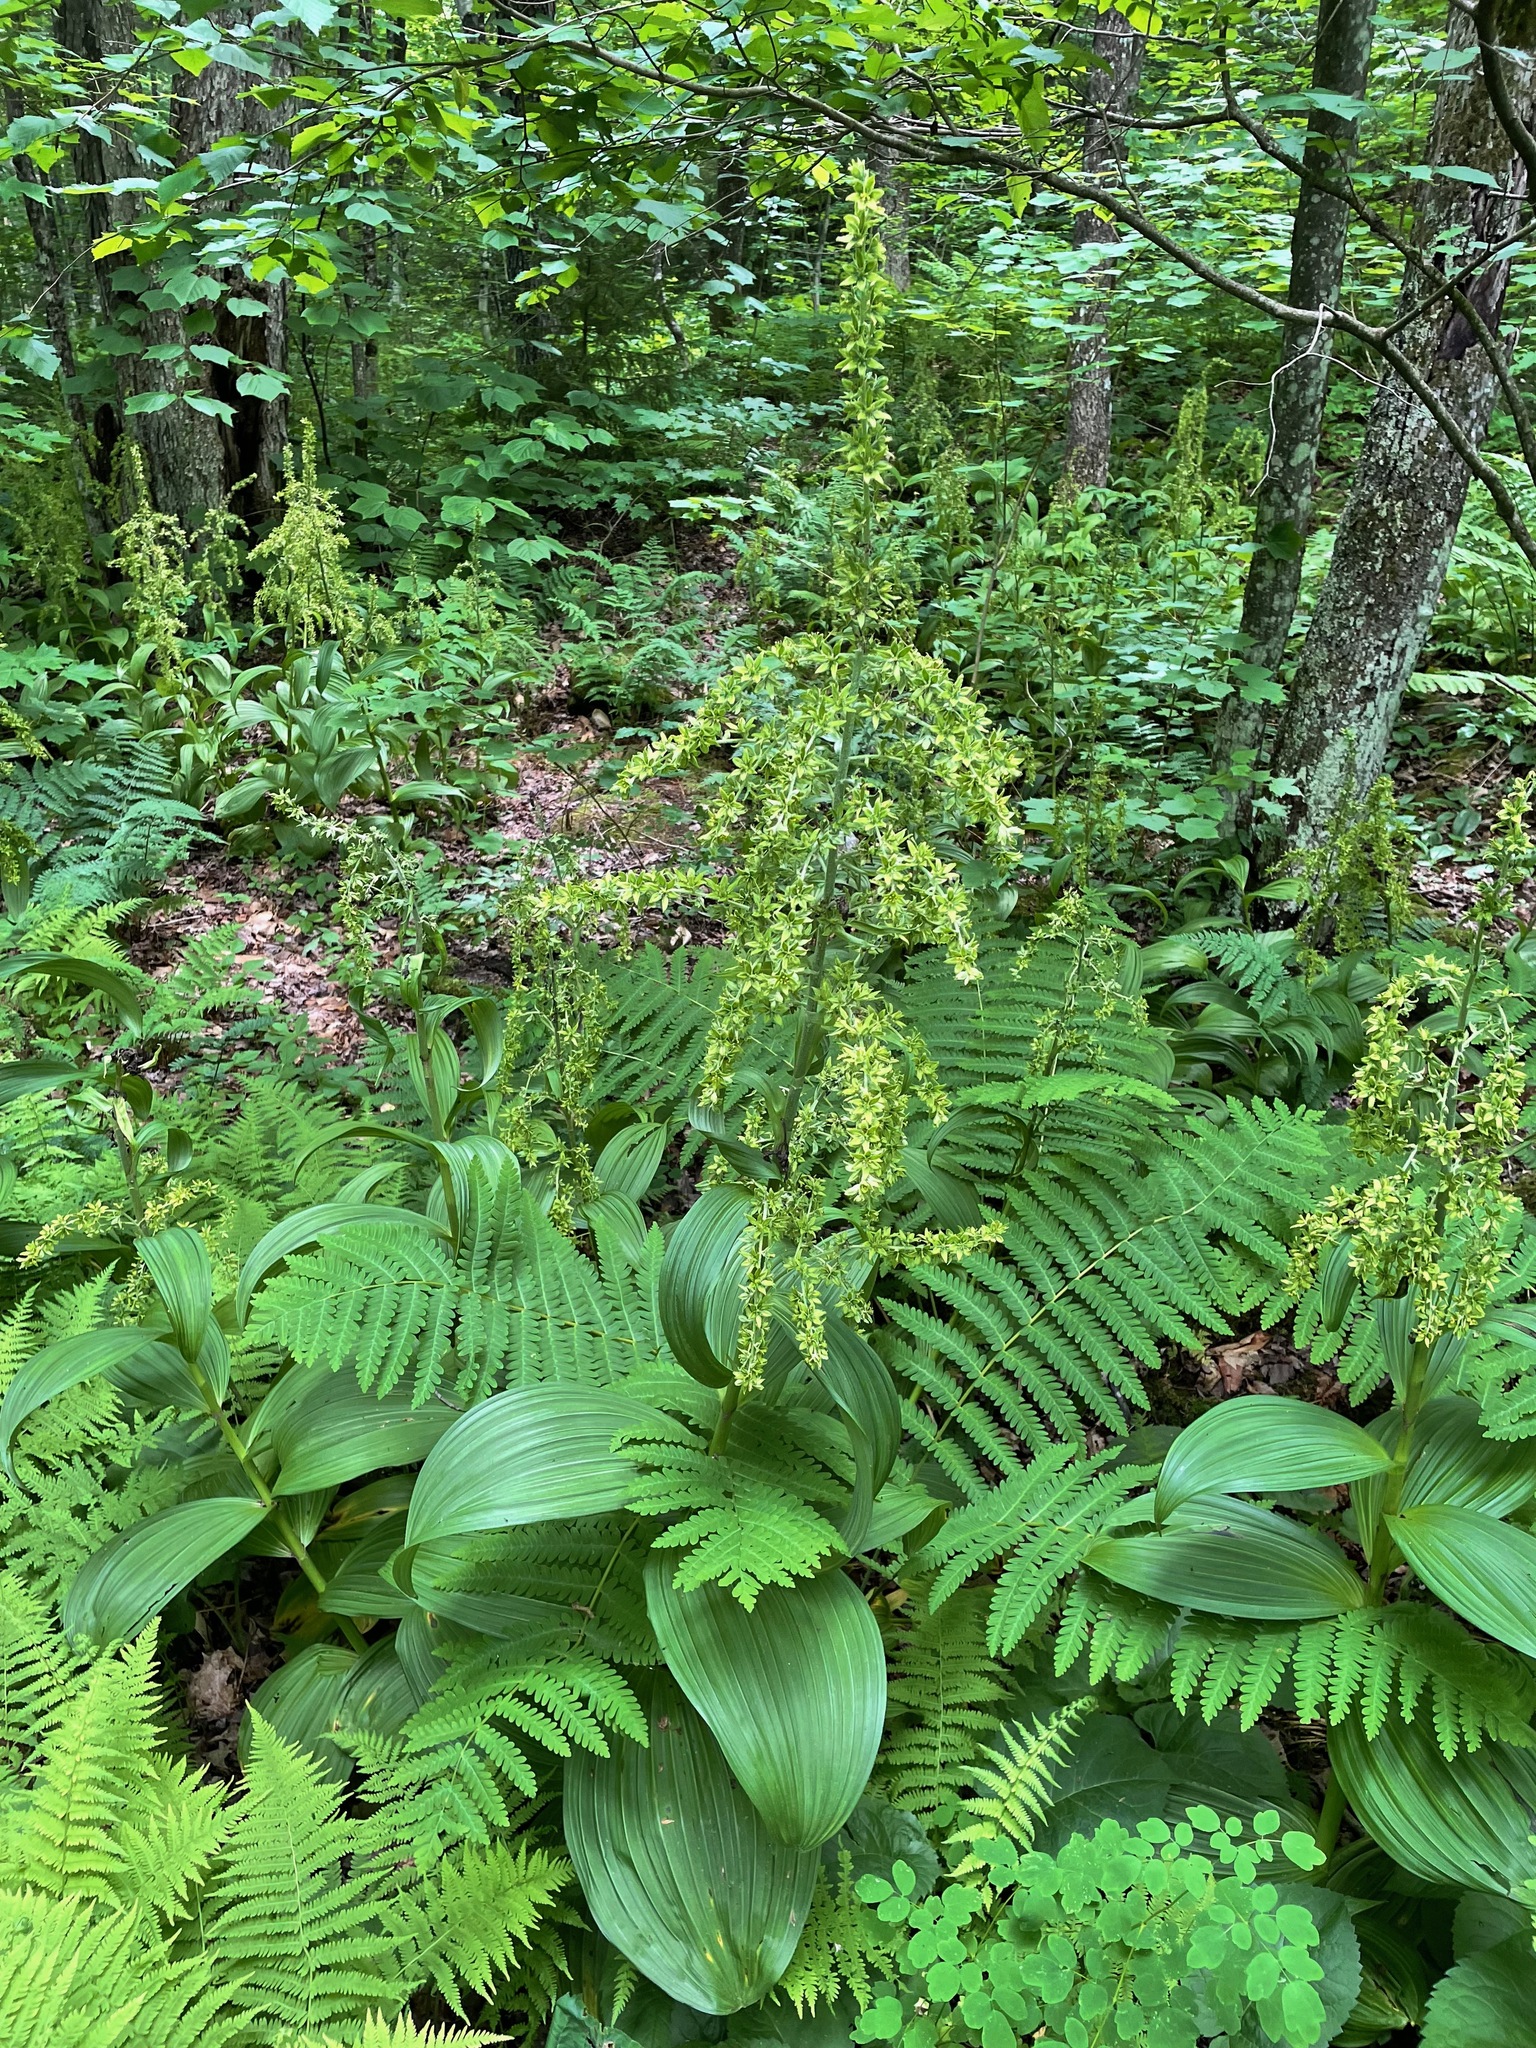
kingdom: Plantae
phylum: Tracheophyta
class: Liliopsida
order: Liliales
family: Melanthiaceae
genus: Veratrum
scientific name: Veratrum viride
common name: American false hellebore
